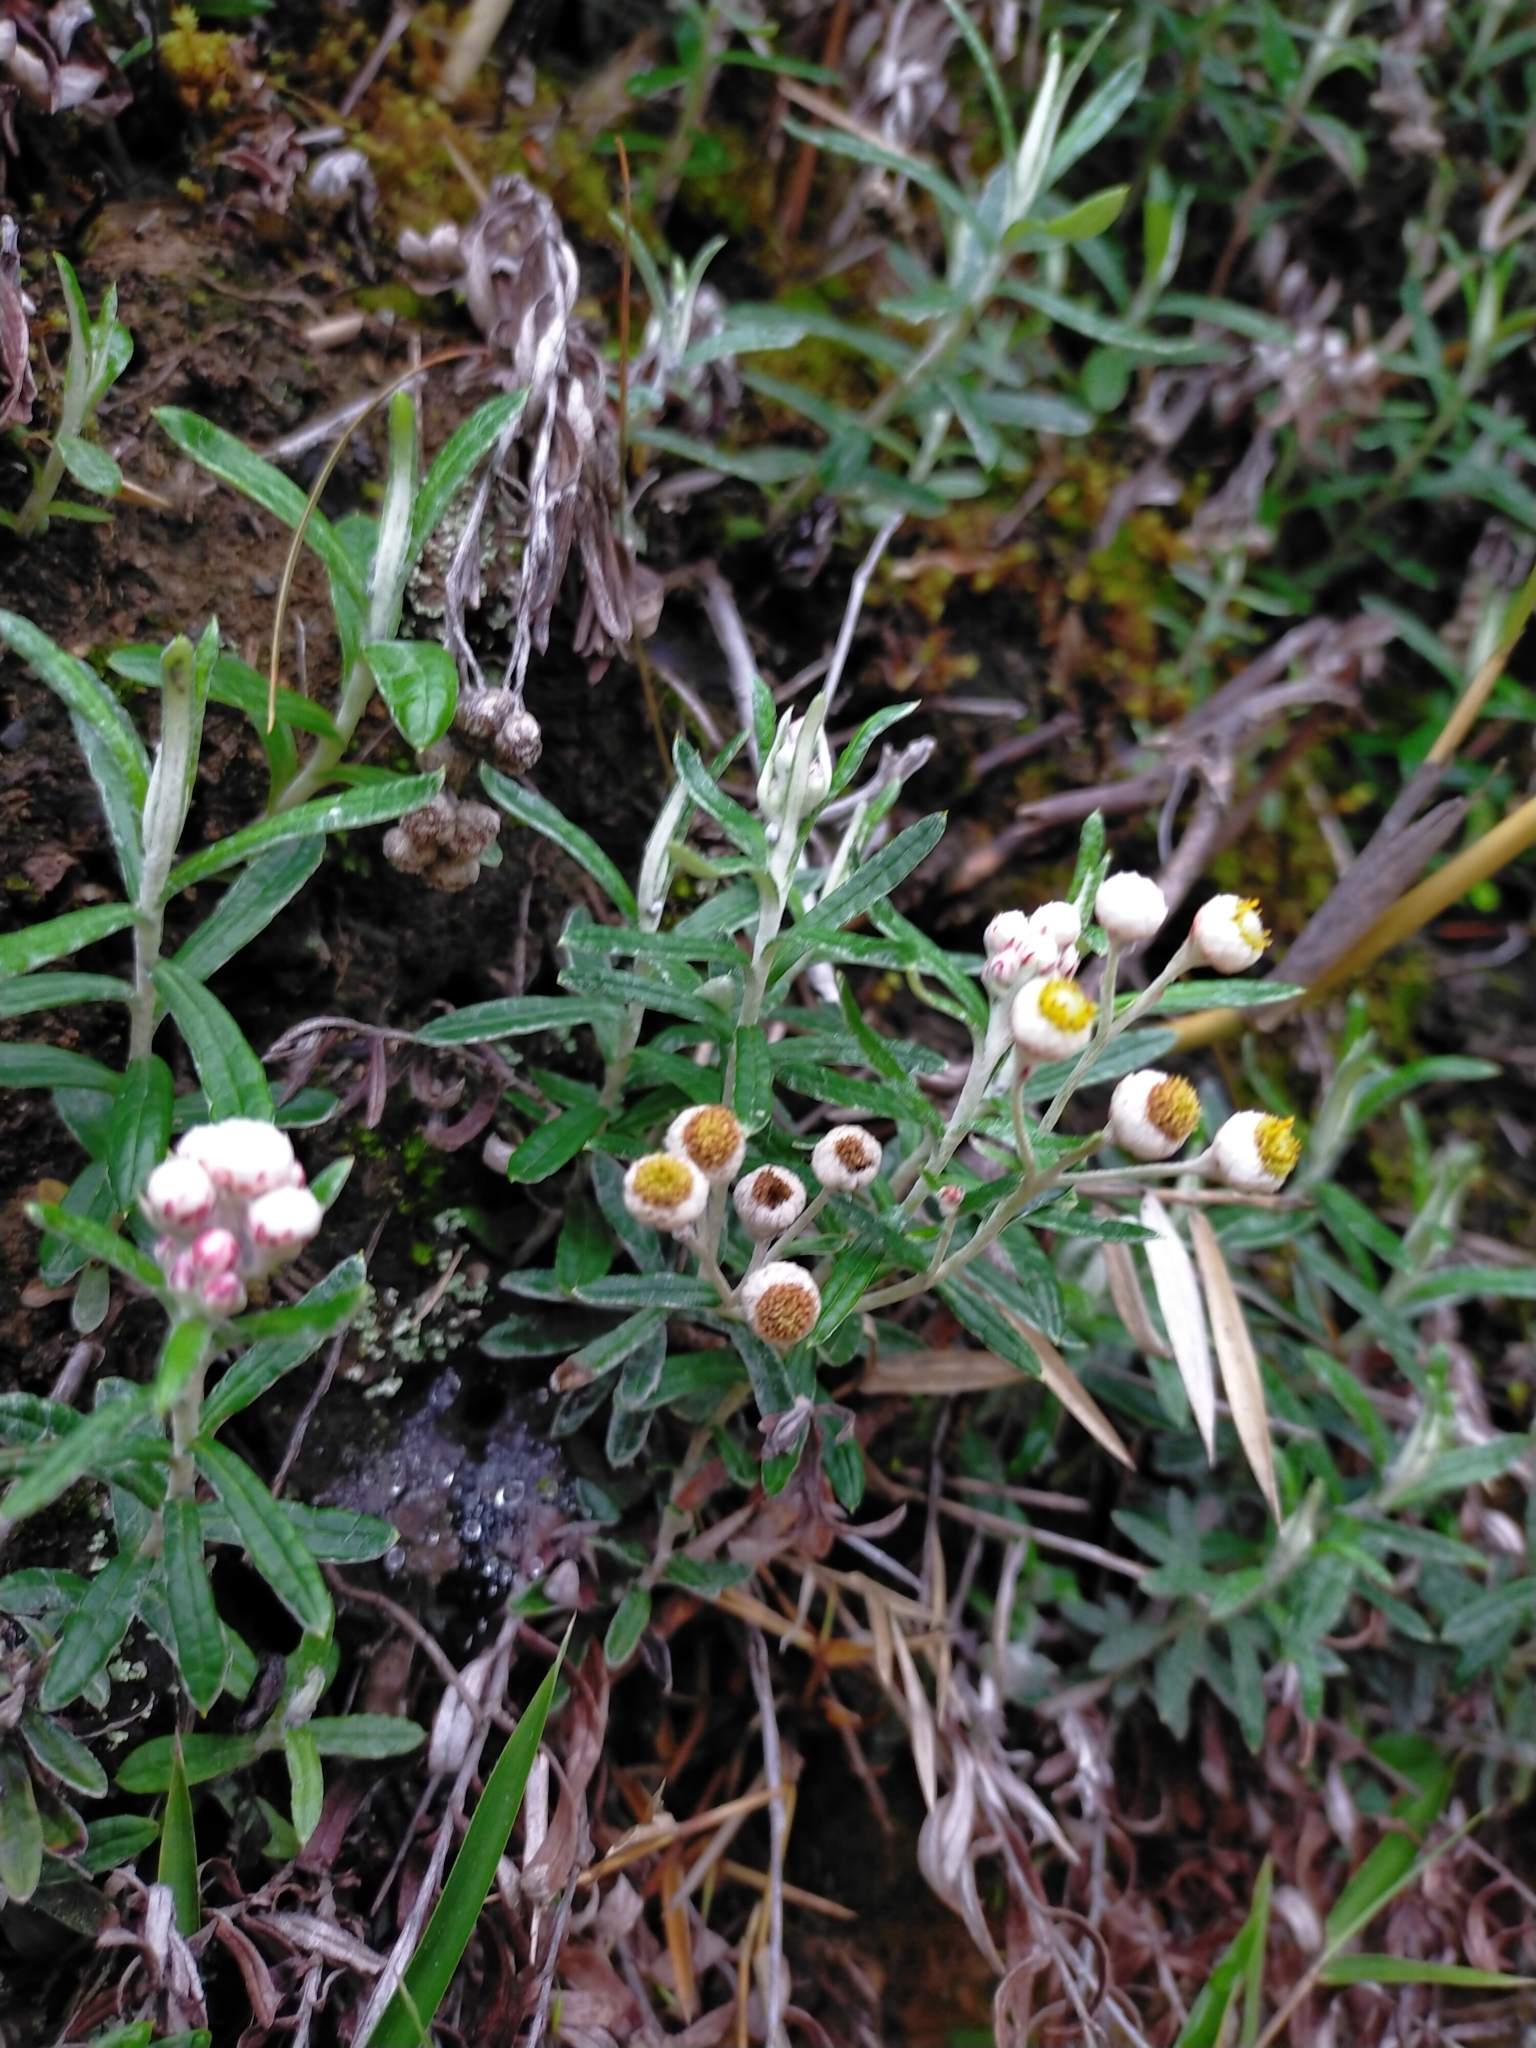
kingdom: Plantae
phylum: Tracheophyta
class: Magnoliopsida
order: Asterales
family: Asteraceae
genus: Anaphalis
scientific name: Anaphalis morrisonicola
